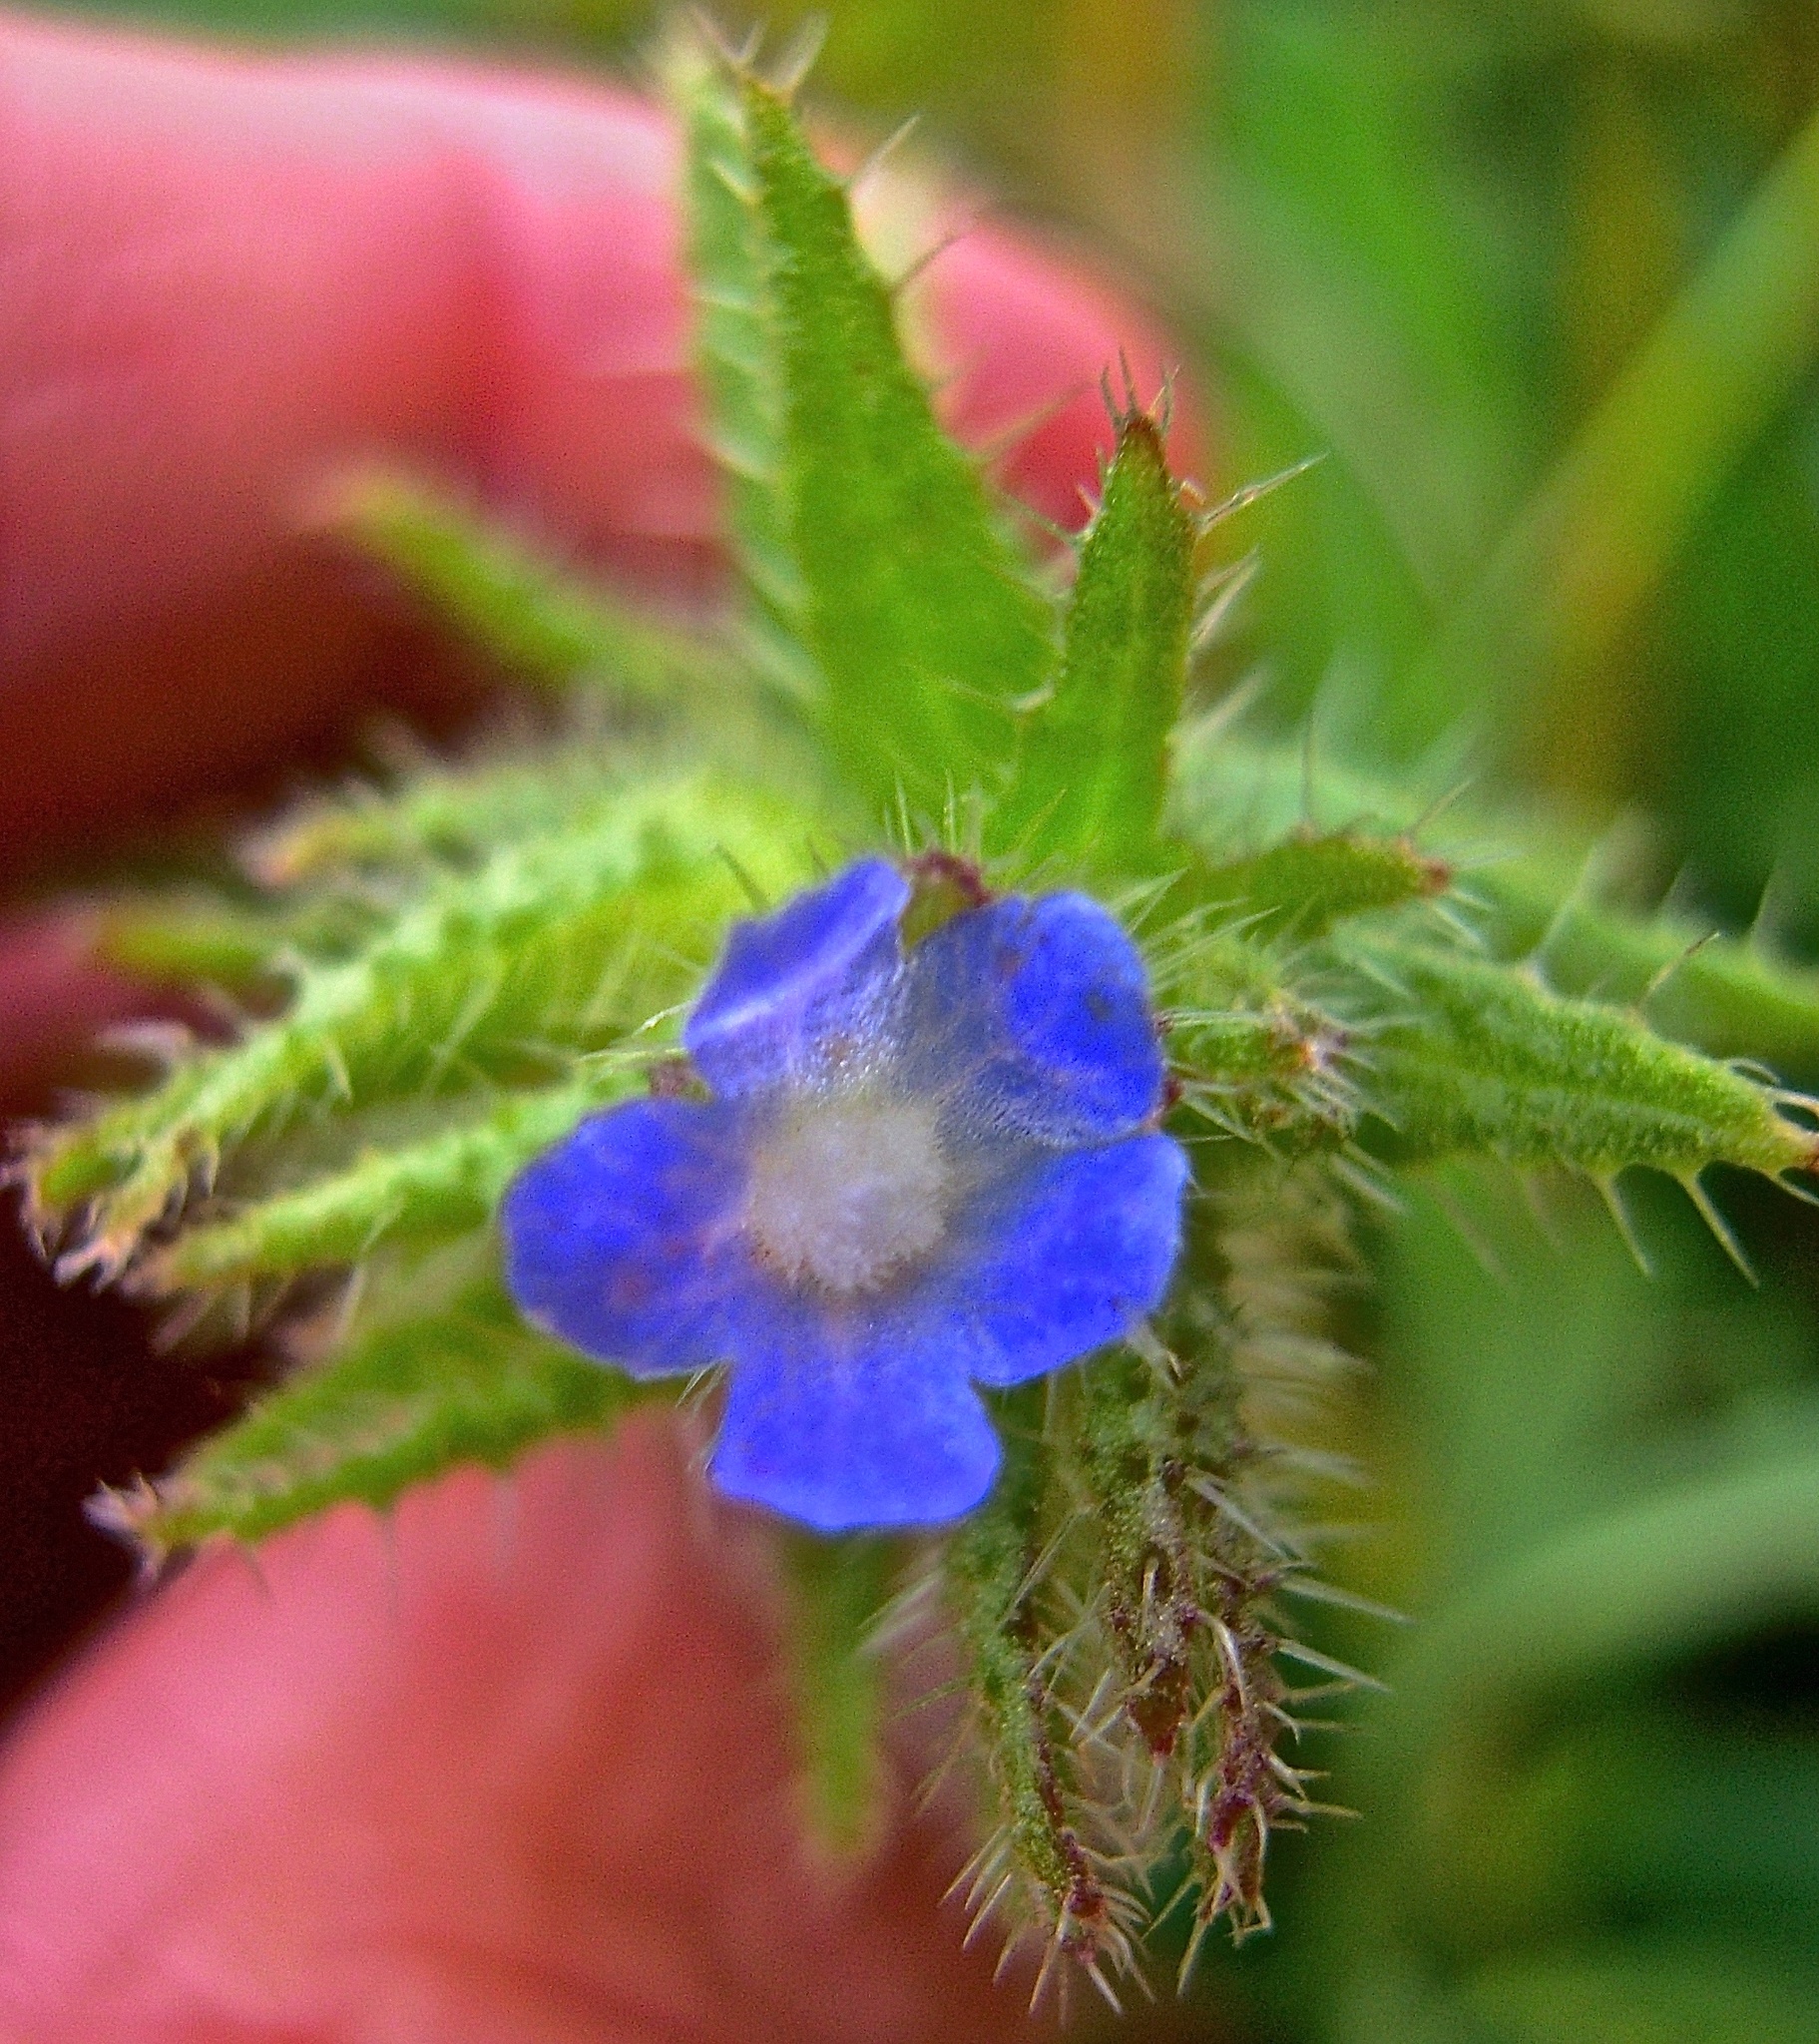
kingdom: Plantae
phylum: Tracheophyta
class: Magnoliopsida
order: Boraginales
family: Boraginaceae
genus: Lycopsis
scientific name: Lycopsis arvensis
